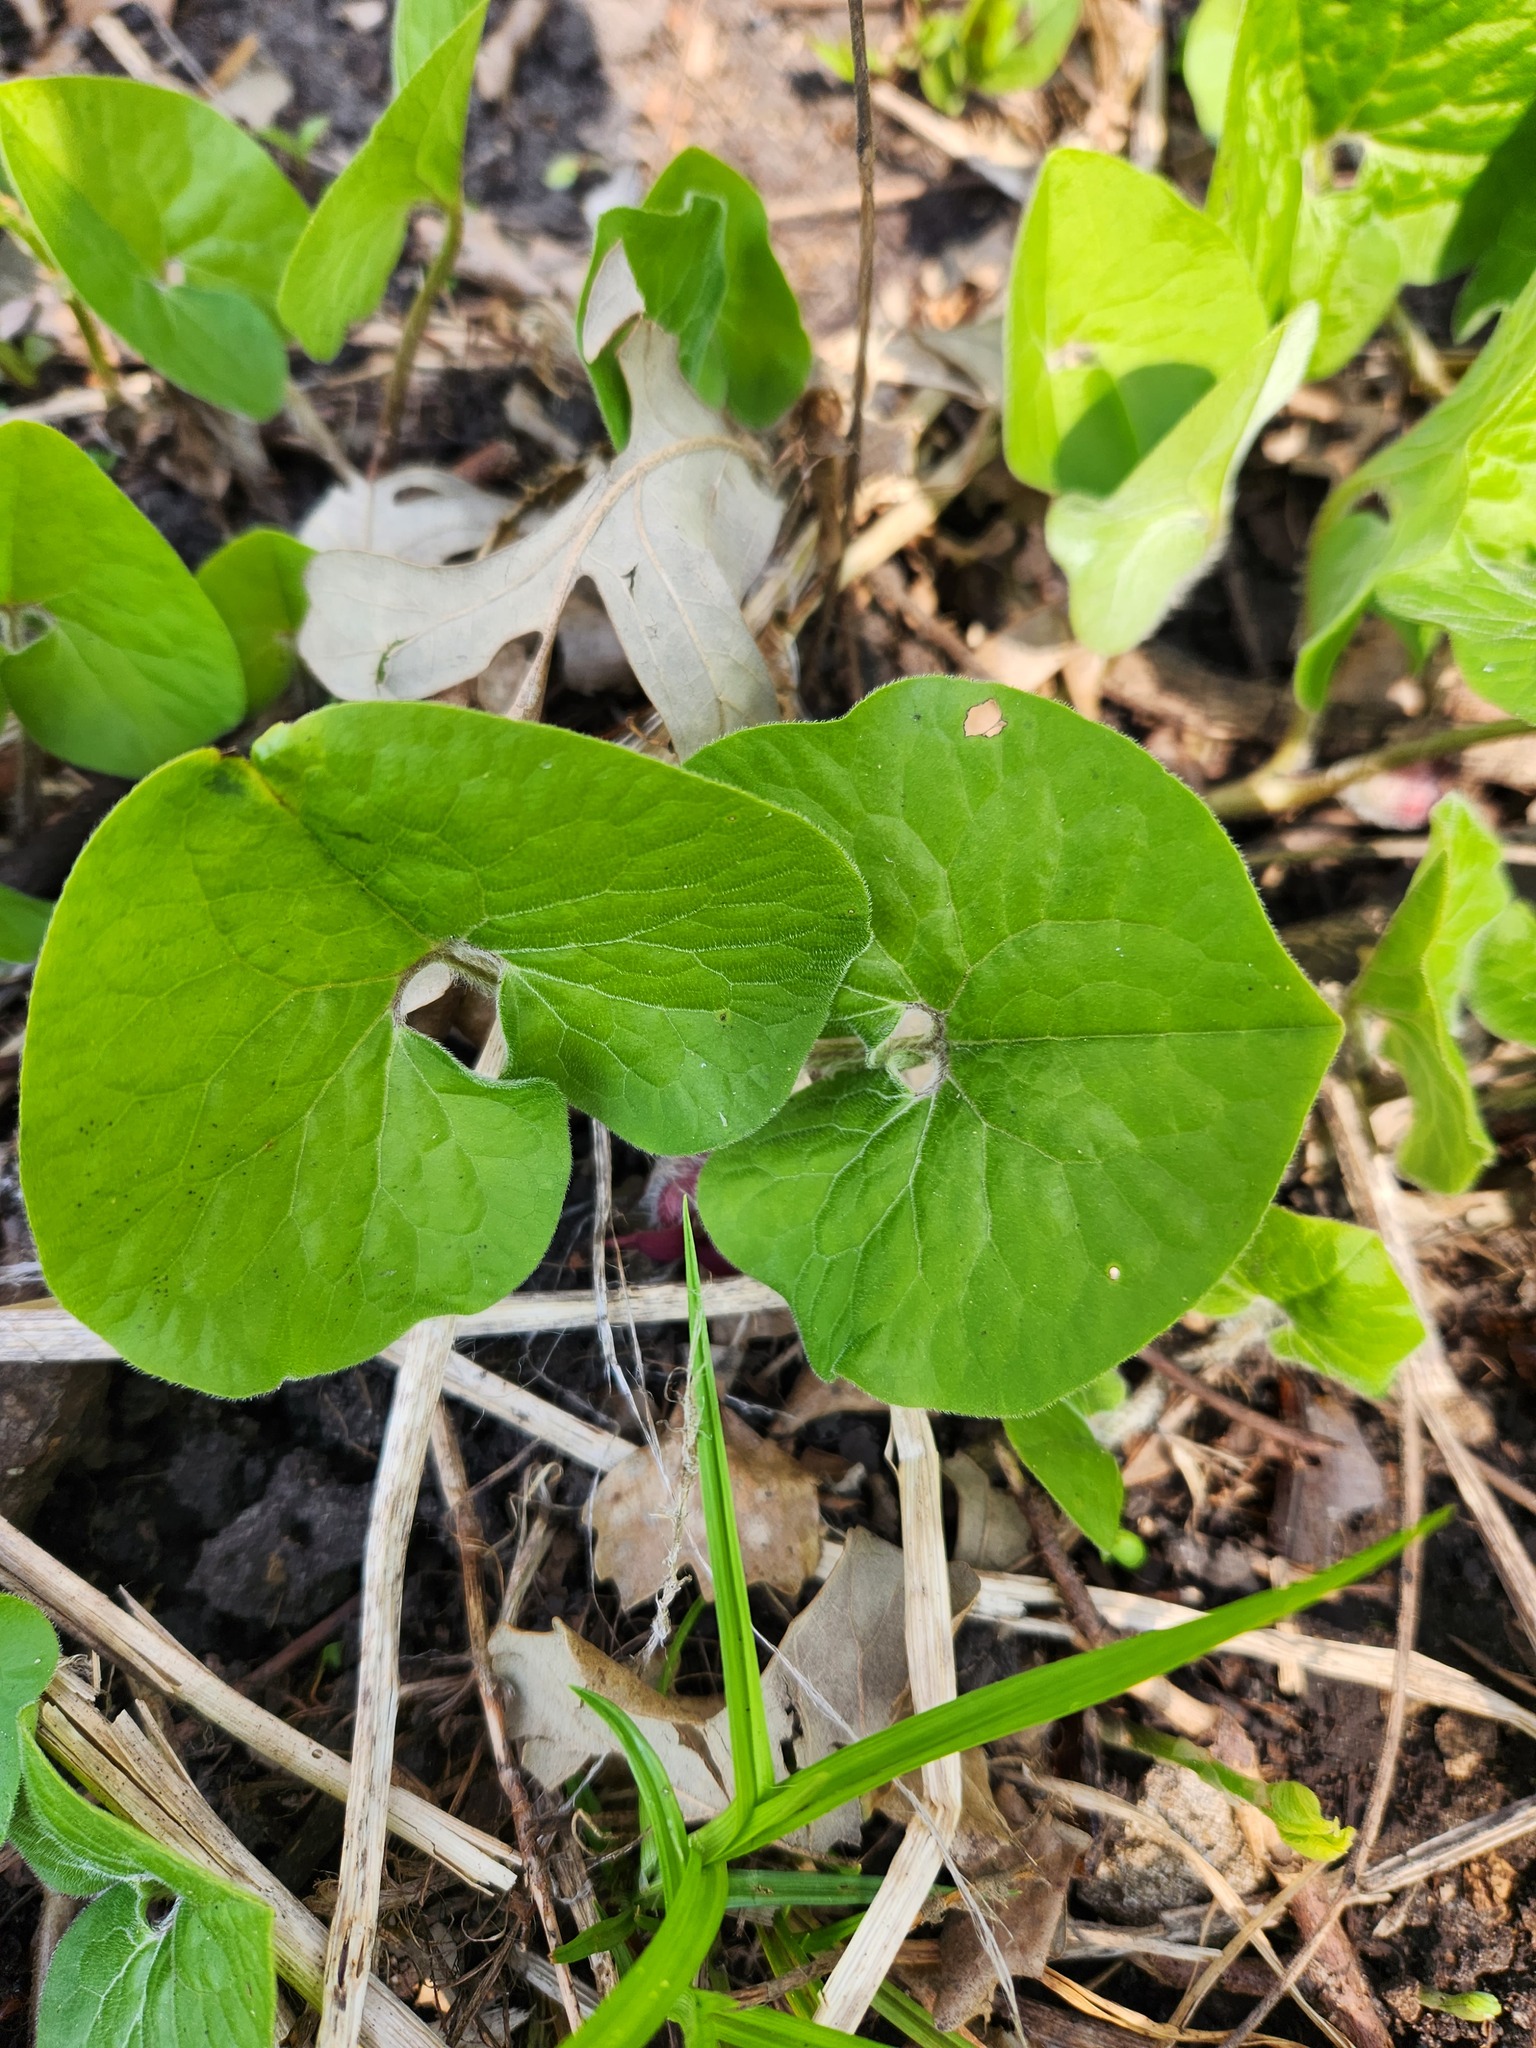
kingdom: Plantae
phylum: Tracheophyta
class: Magnoliopsida
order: Piperales
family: Aristolochiaceae
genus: Asarum
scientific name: Asarum canadense
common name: Wild ginger
